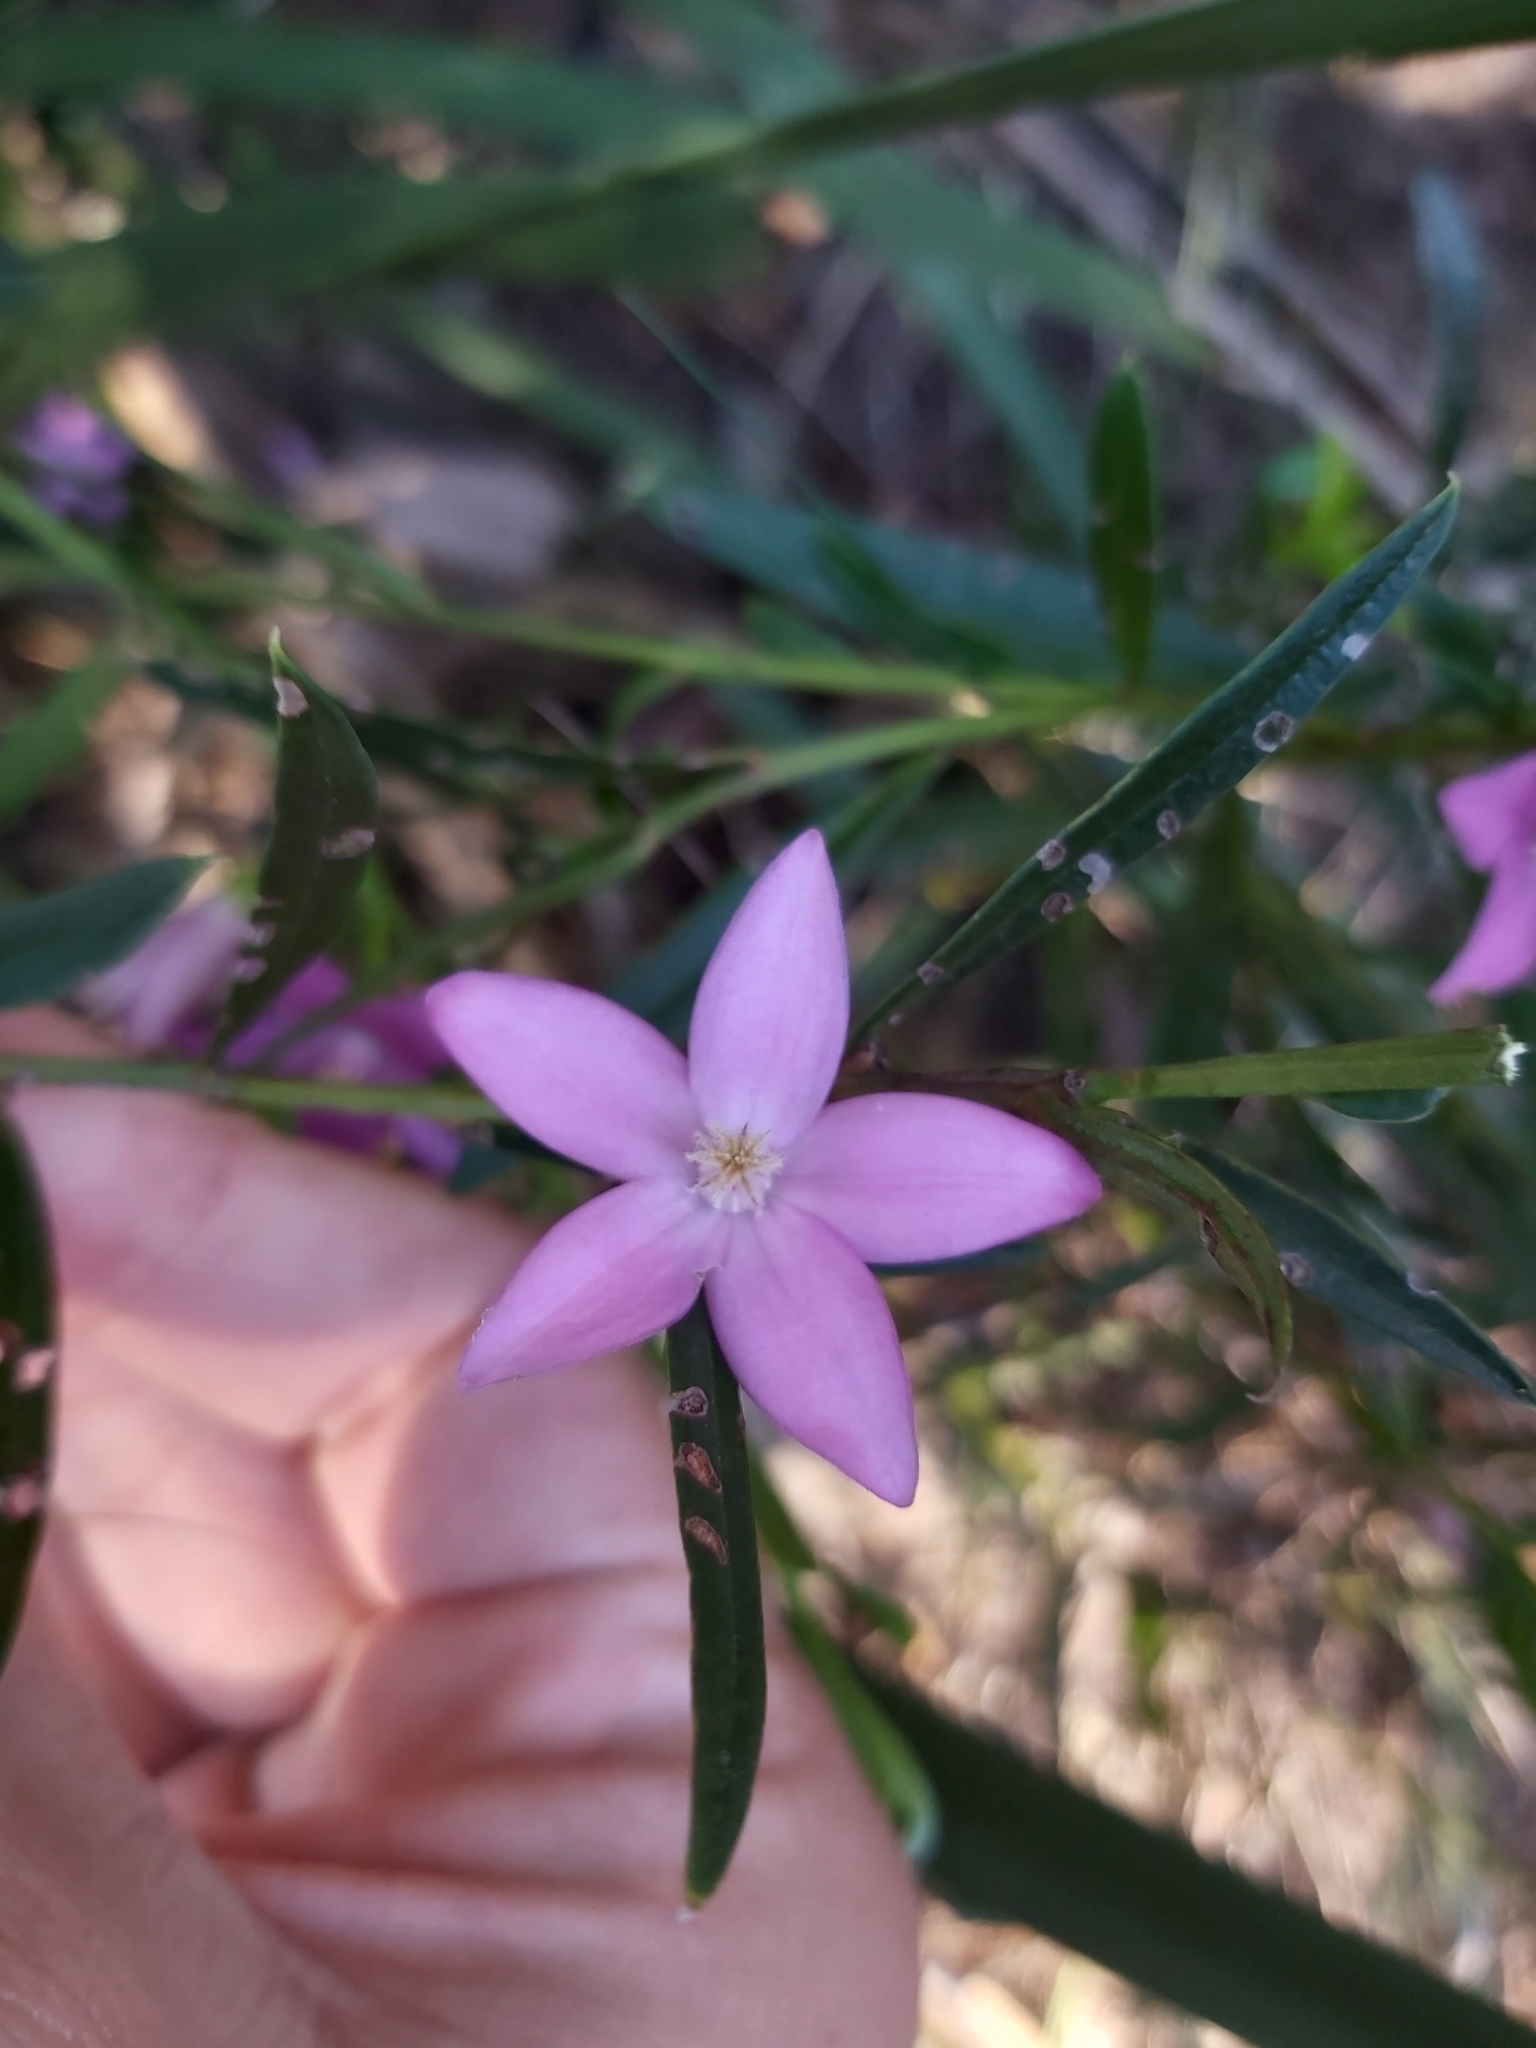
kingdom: Plantae
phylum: Tracheophyta
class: Magnoliopsida
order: Sapindales
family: Rutaceae
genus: Crowea
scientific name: Crowea saligna
